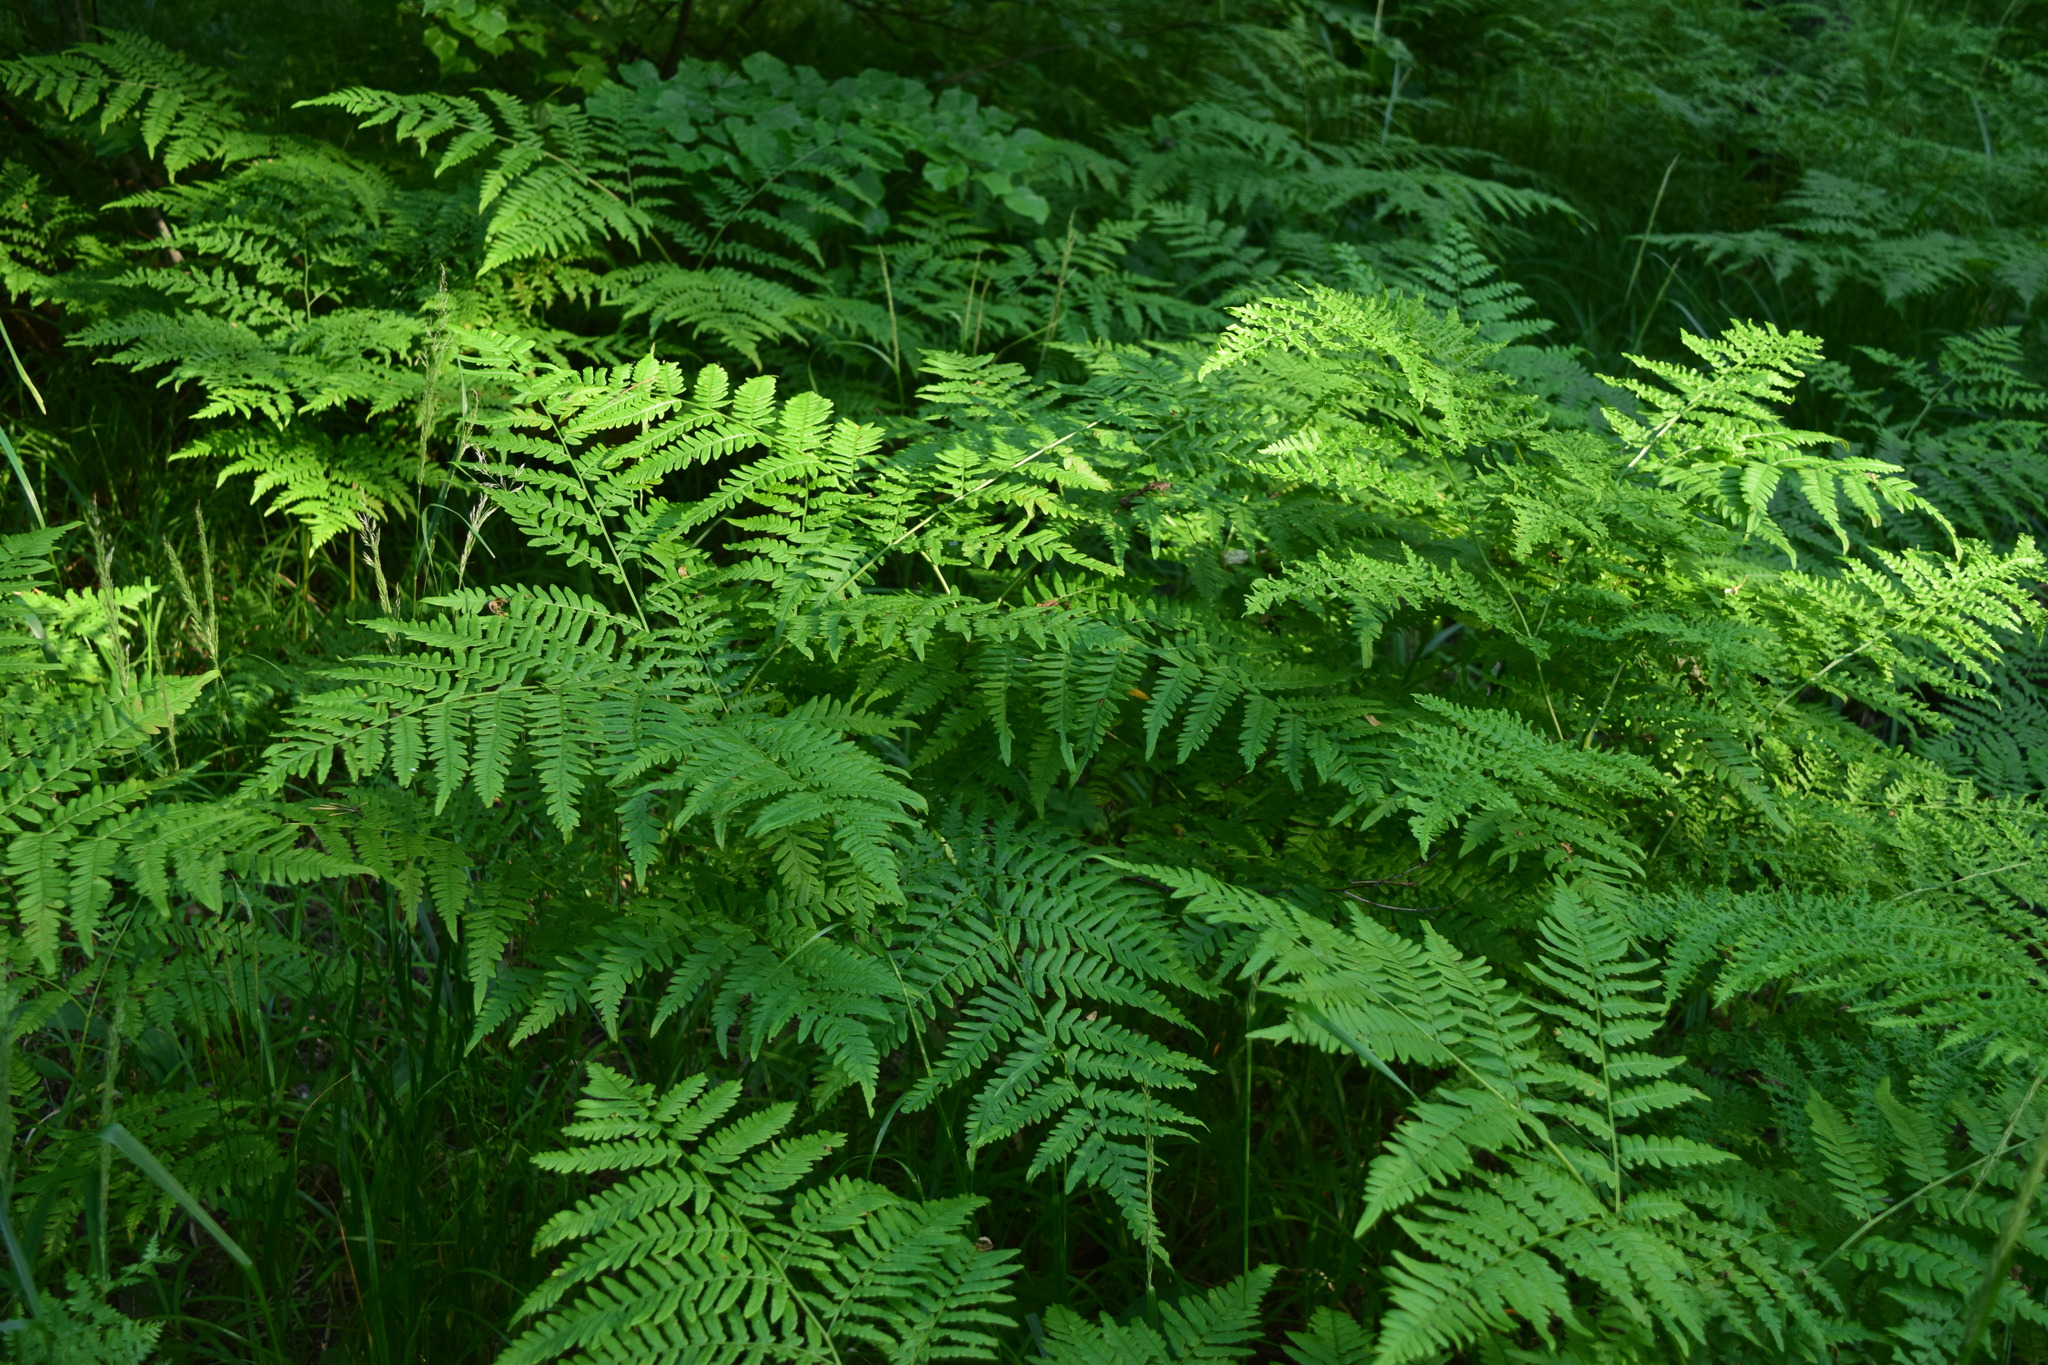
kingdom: Plantae
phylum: Tracheophyta
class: Polypodiopsida
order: Polypodiales
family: Dennstaedtiaceae
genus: Pteridium
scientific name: Pteridium aquilinum
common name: Bracken
